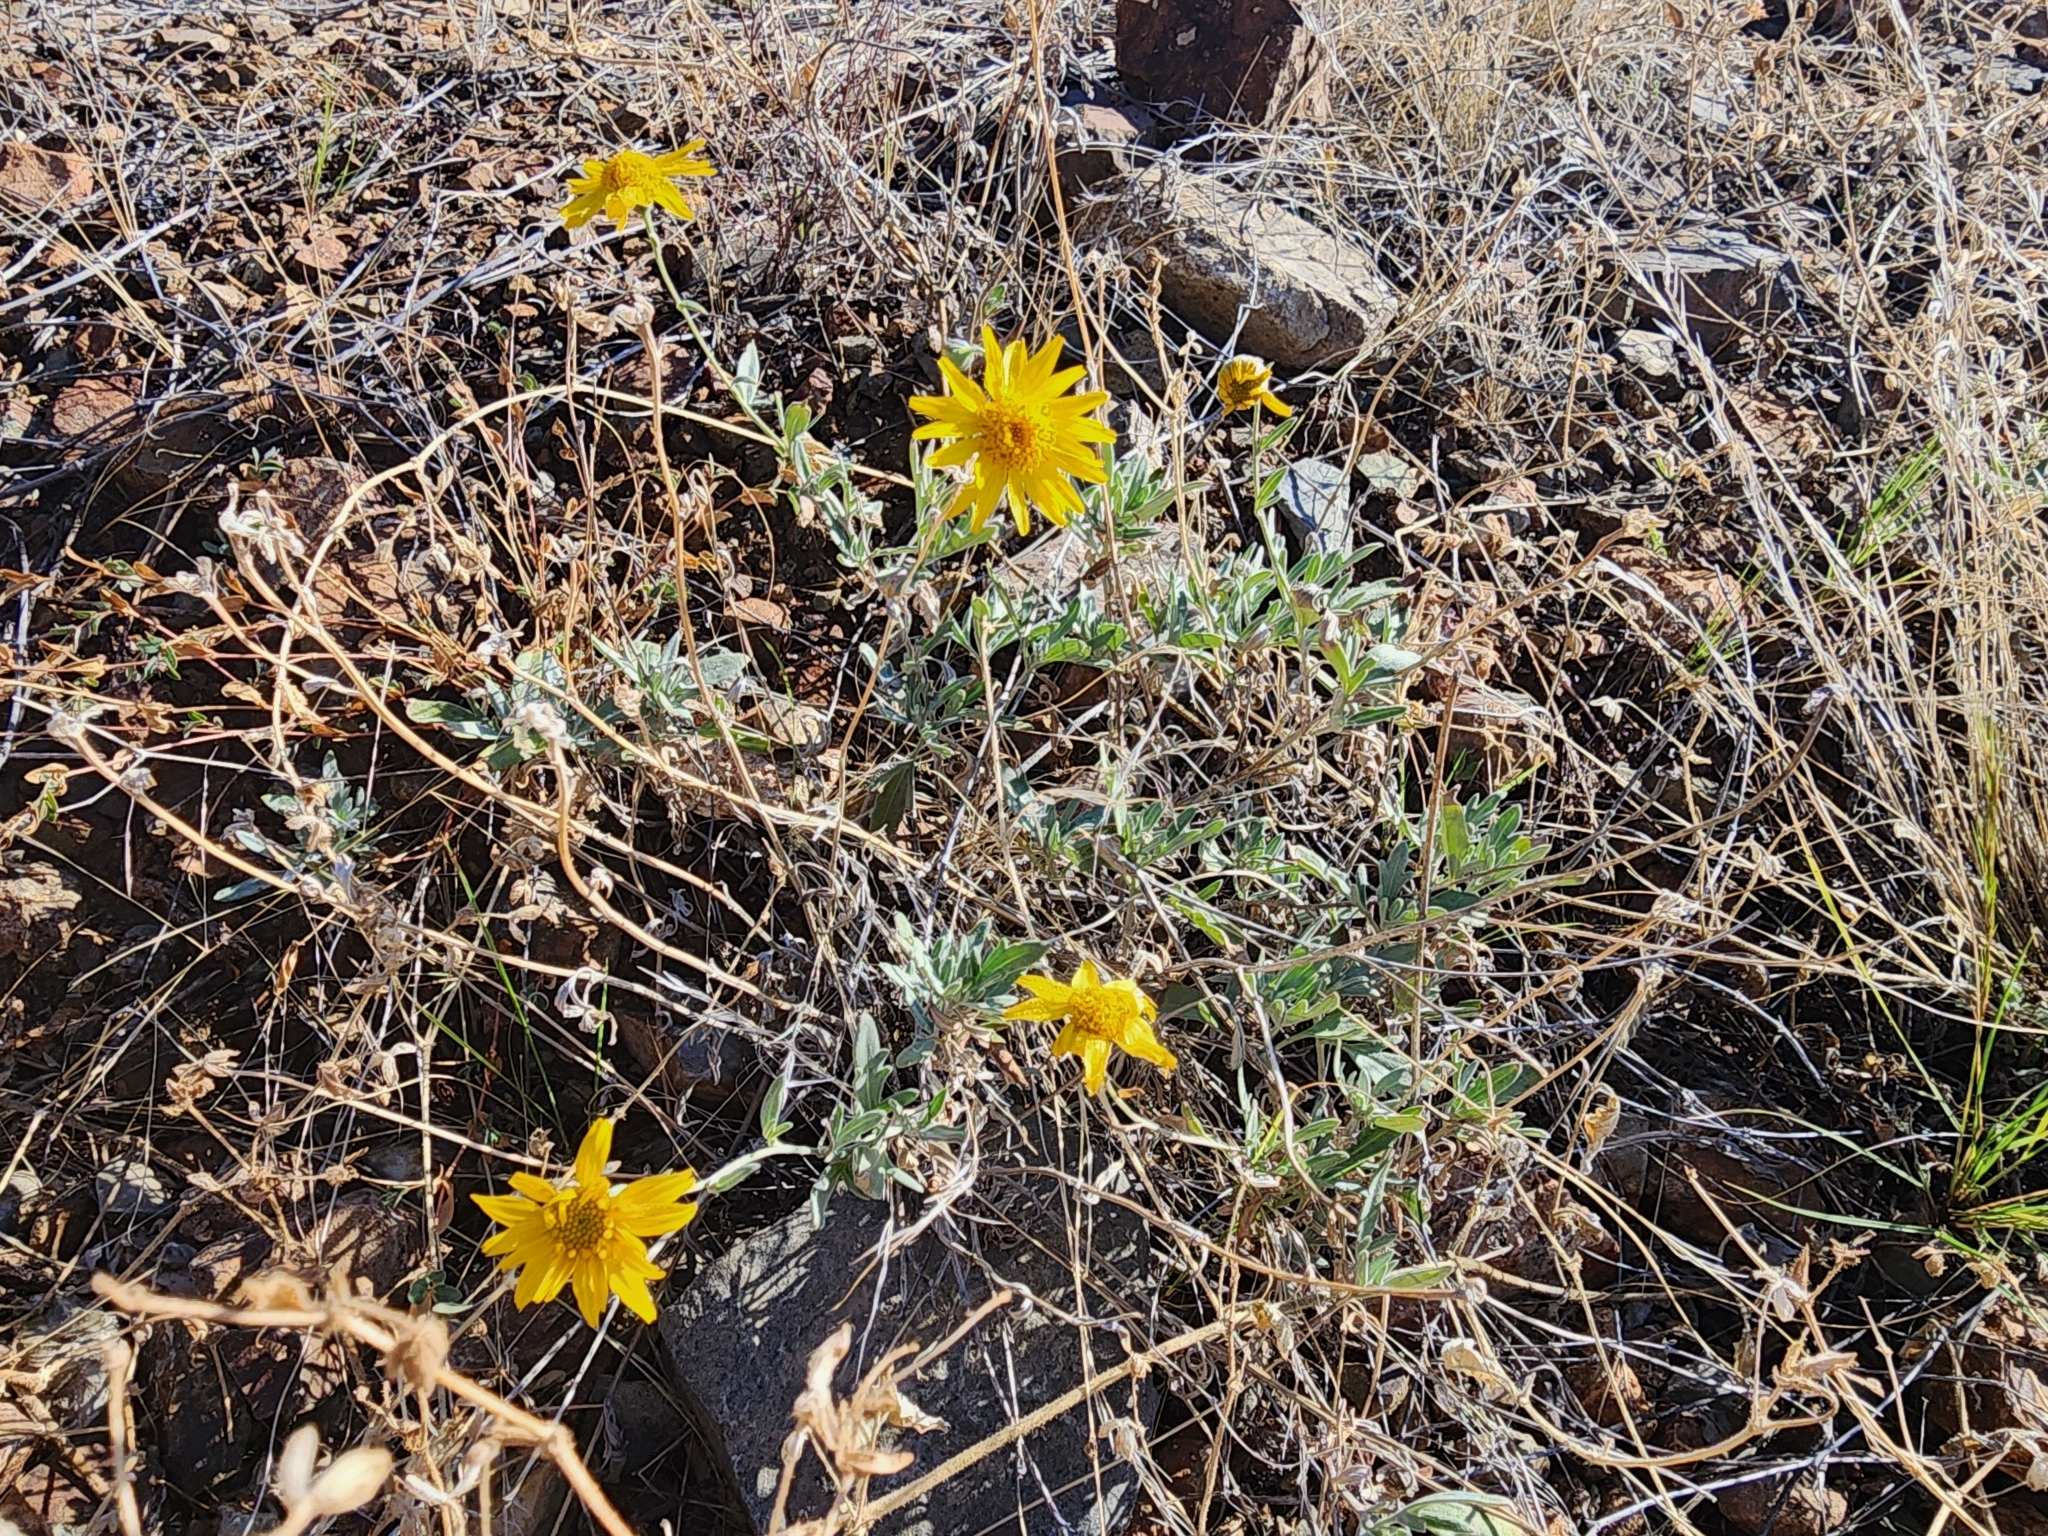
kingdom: Plantae
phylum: Tracheophyta
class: Magnoliopsida
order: Asterales
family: Asteraceae
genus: Picradeniopsis
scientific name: Picradeniopsis absinthifolia
